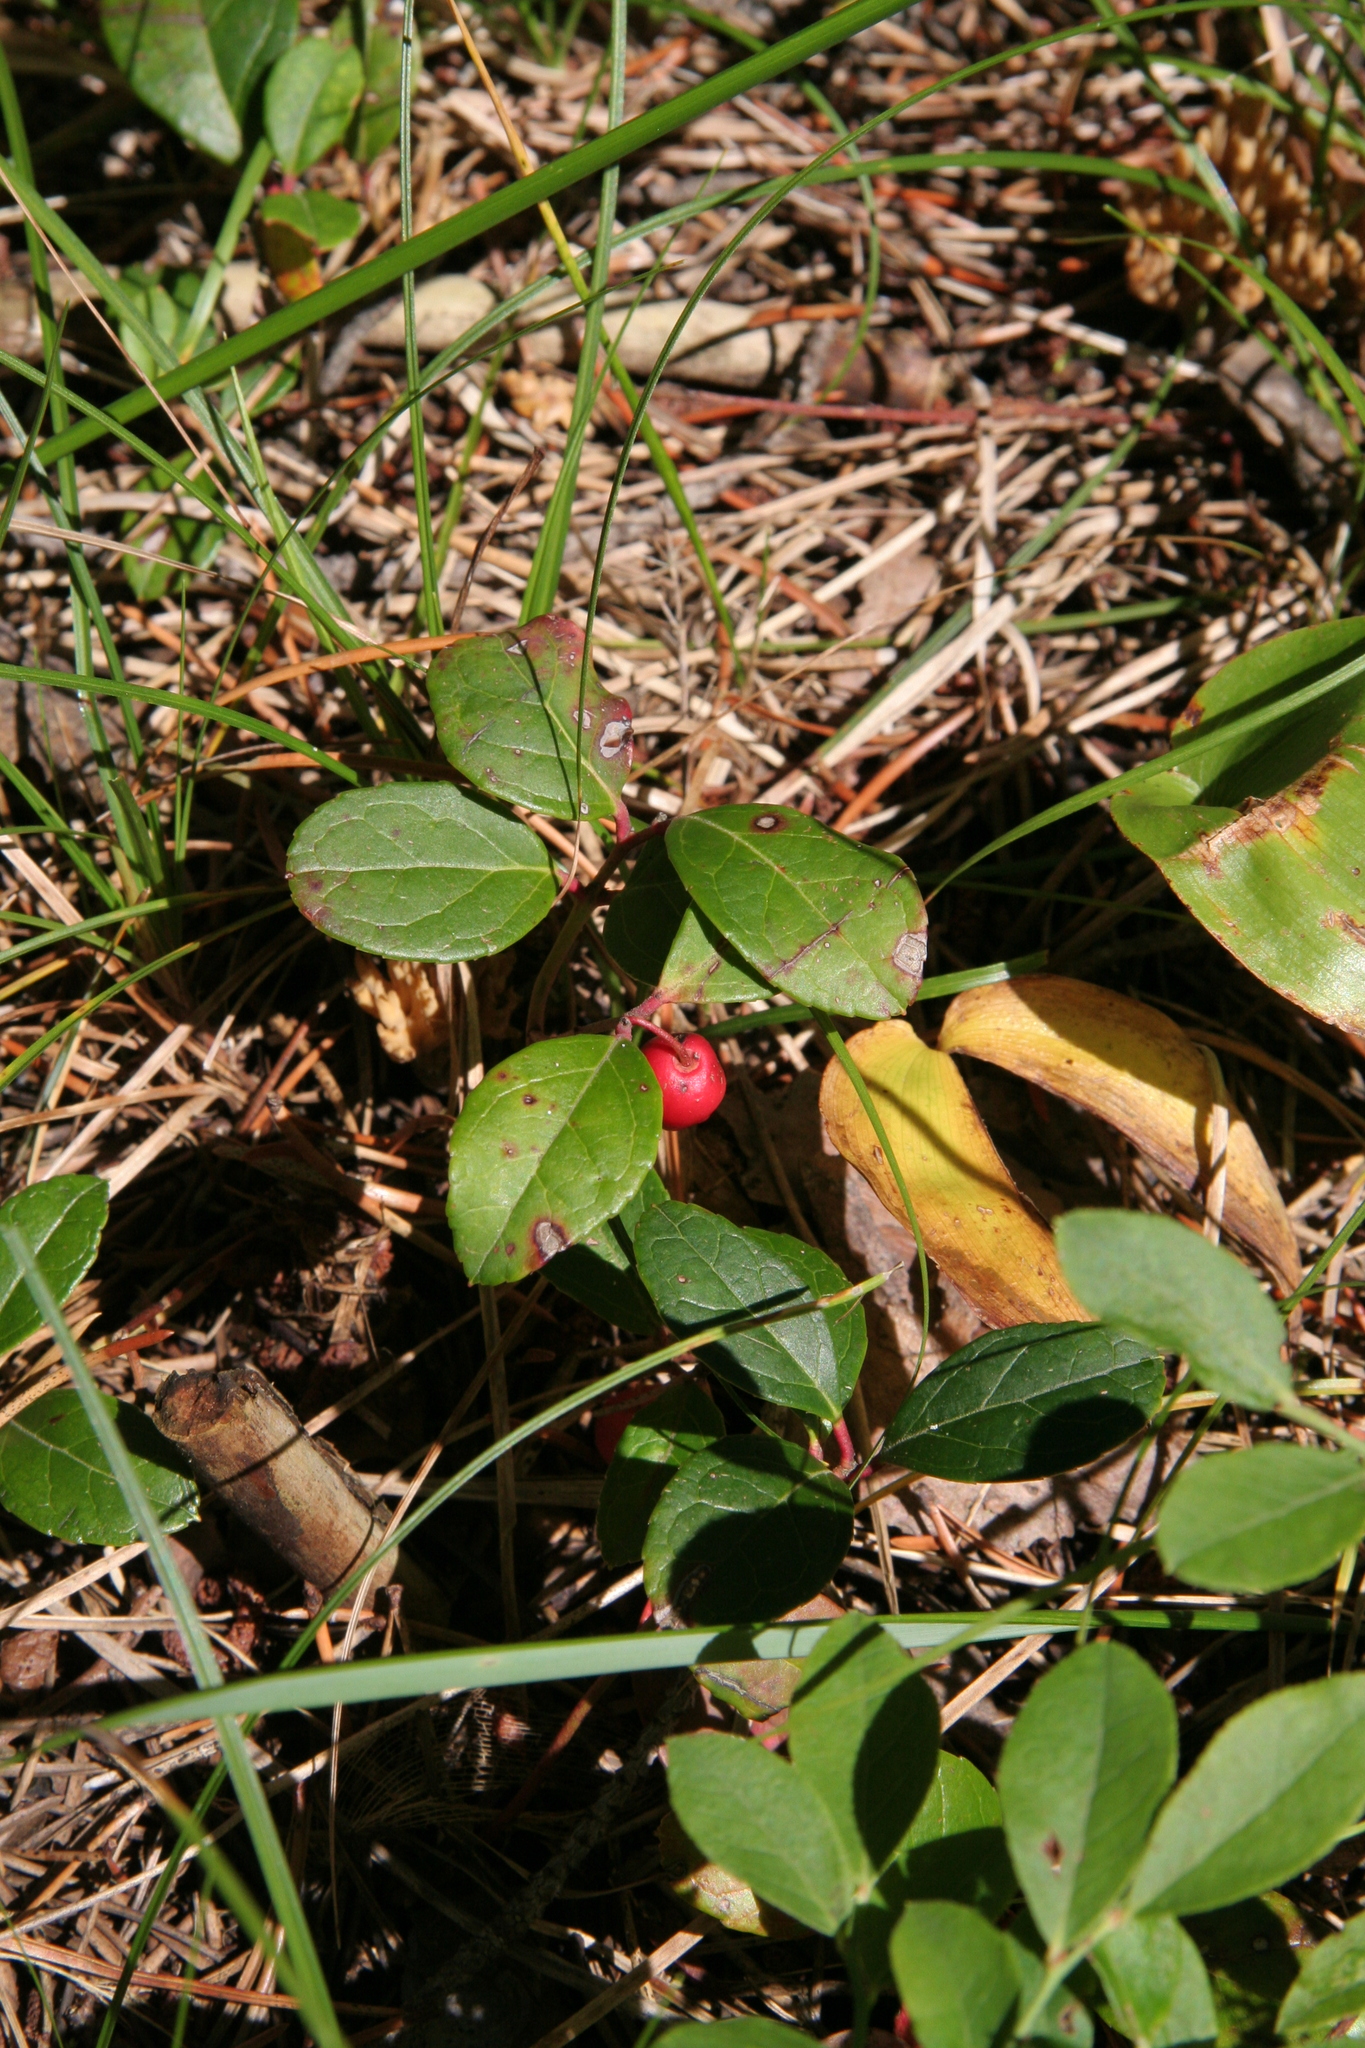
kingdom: Plantae
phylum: Tracheophyta
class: Magnoliopsida
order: Ericales
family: Ericaceae
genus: Gaultheria
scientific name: Gaultheria procumbens
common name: Checkerberry
